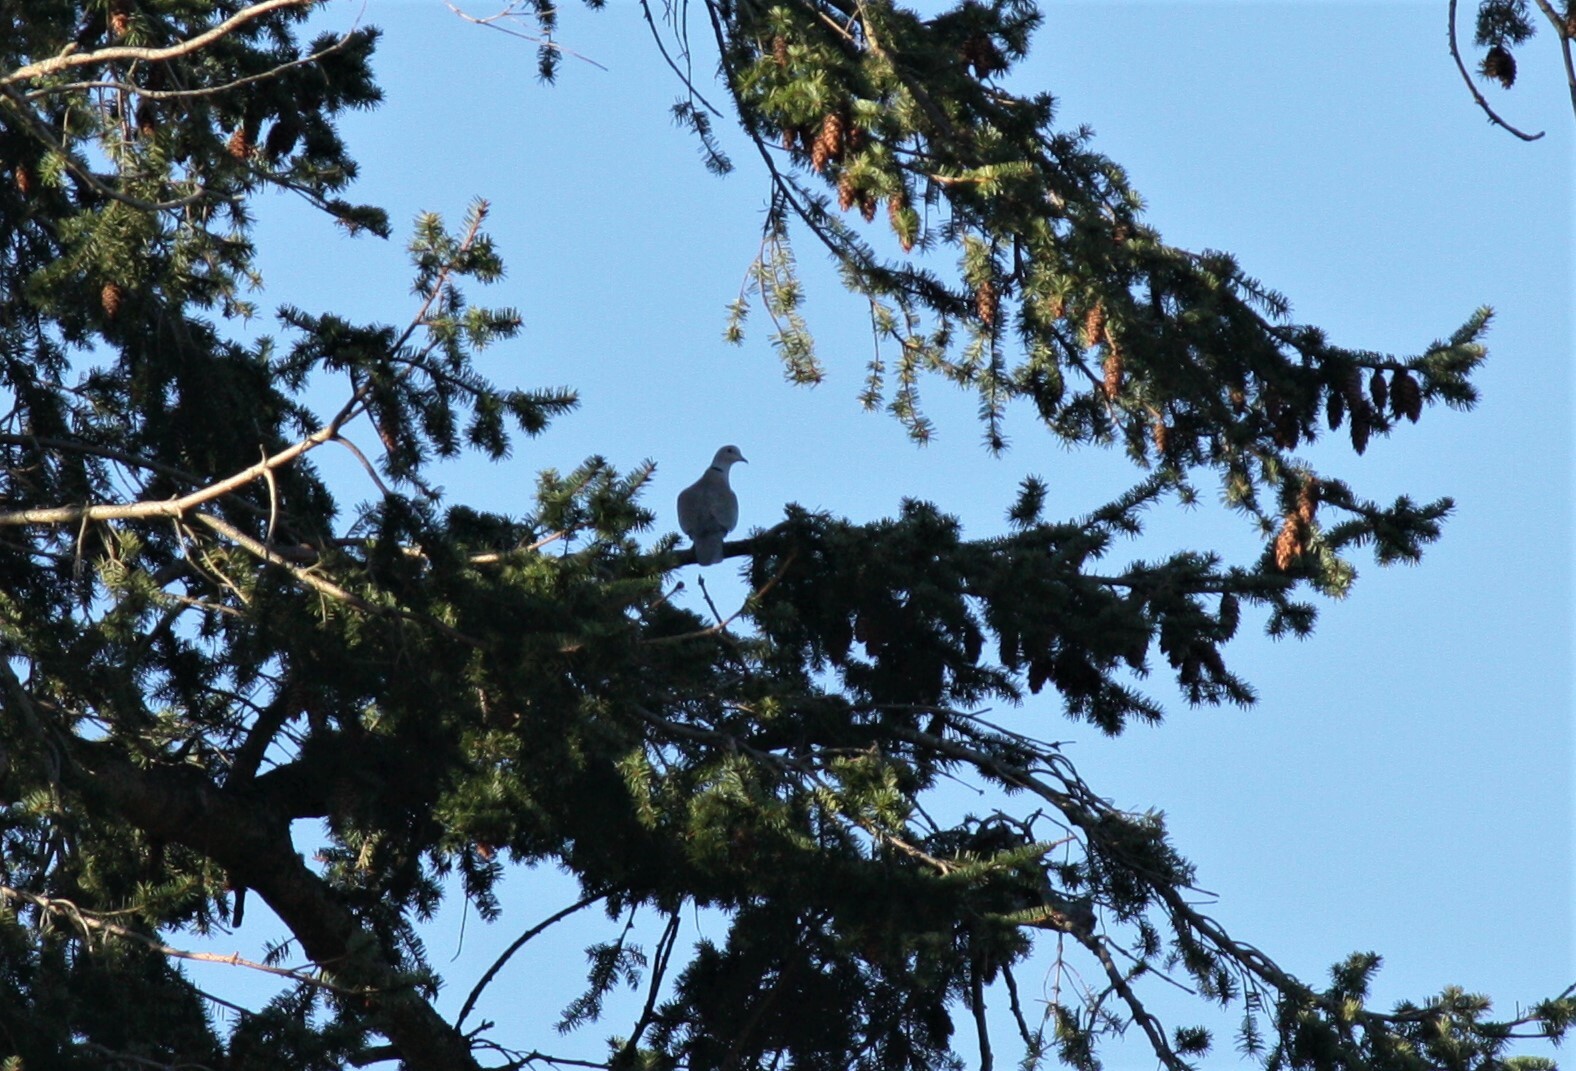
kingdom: Animalia
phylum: Chordata
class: Aves
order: Columbiformes
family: Columbidae
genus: Streptopelia
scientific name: Streptopelia decaocto
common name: Eurasian collared dove
